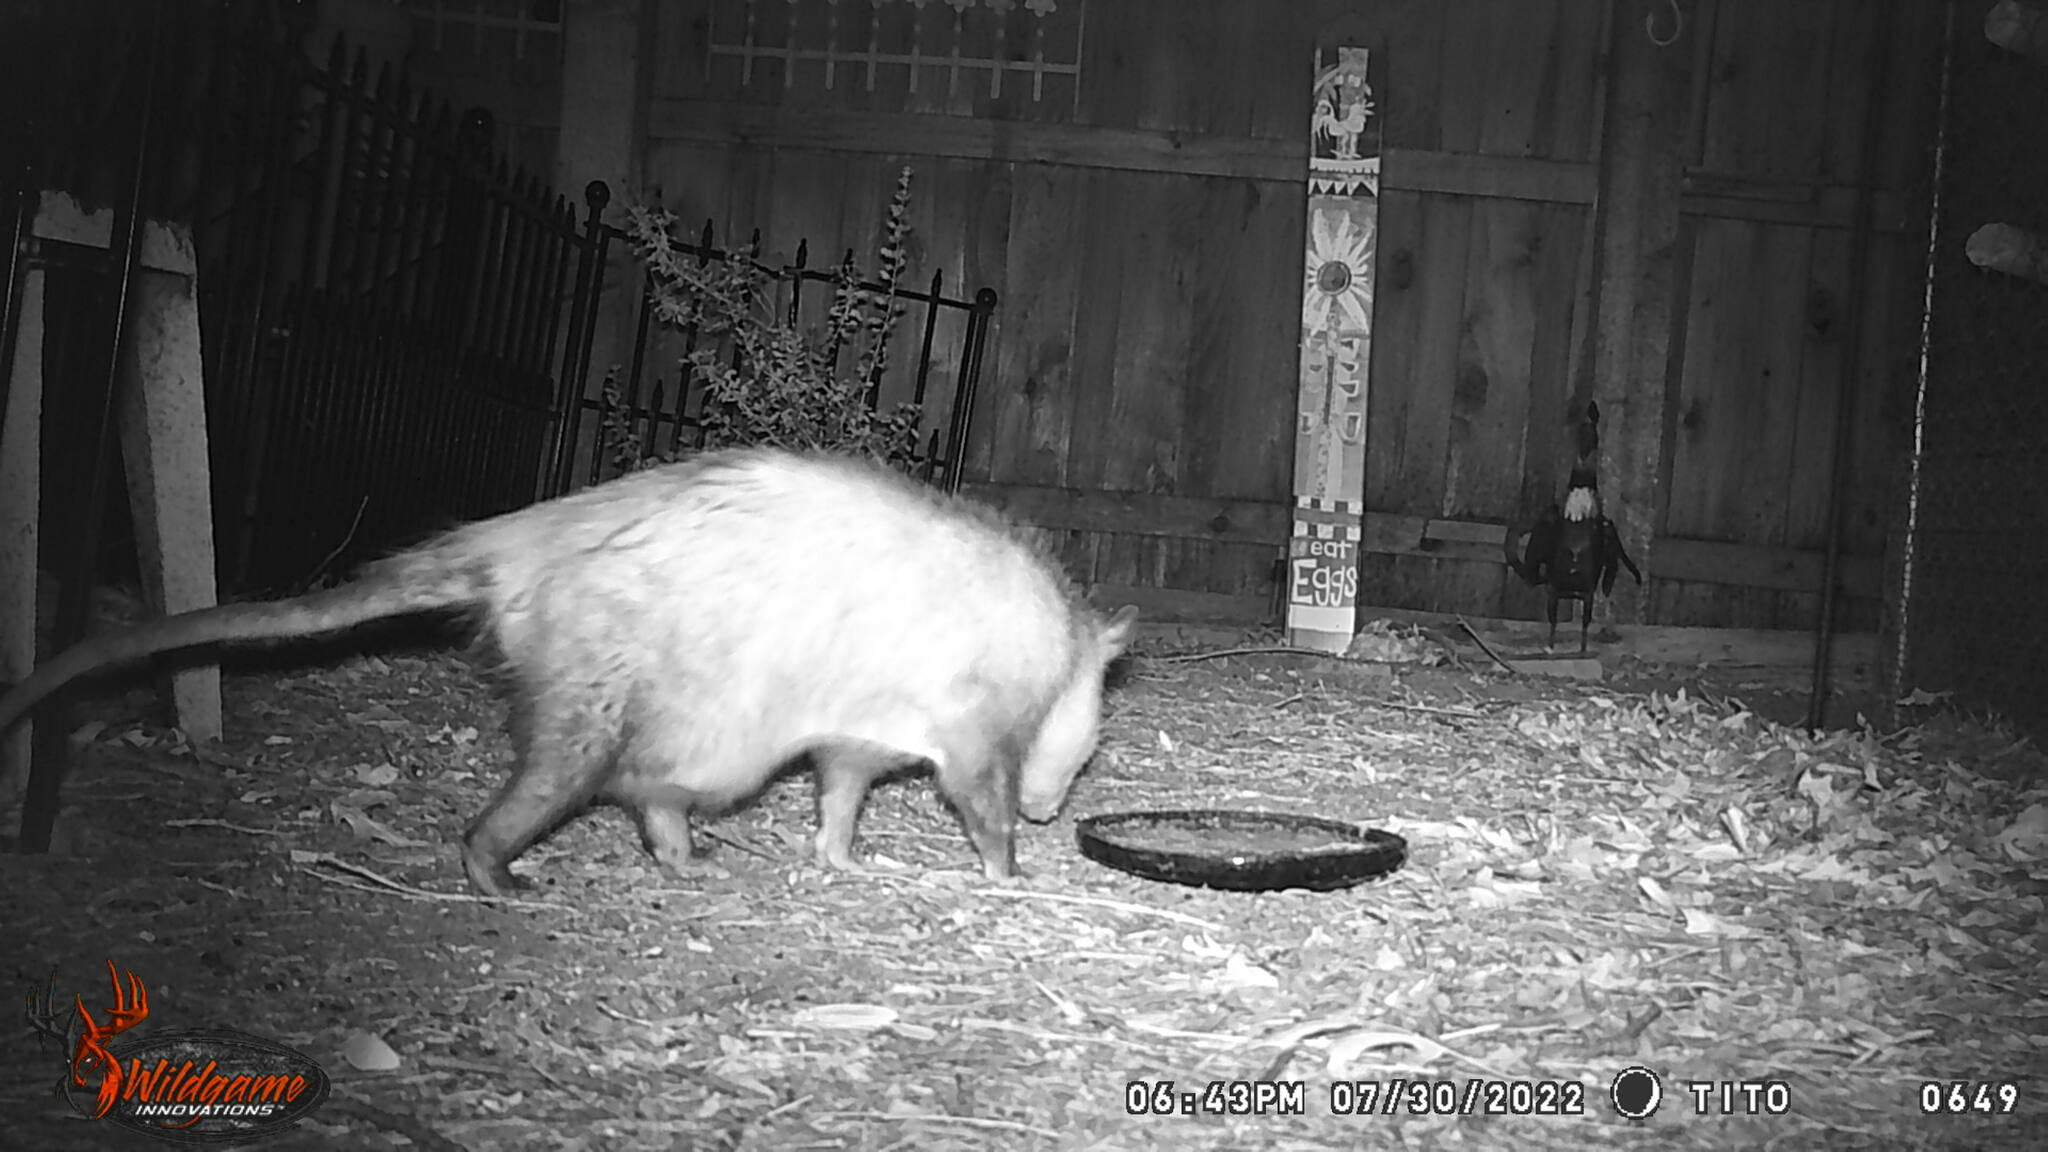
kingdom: Animalia
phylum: Chordata
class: Mammalia
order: Didelphimorphia
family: Didelphidae
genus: Didelphis
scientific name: Didelphis virginiana
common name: Virginia opossum
